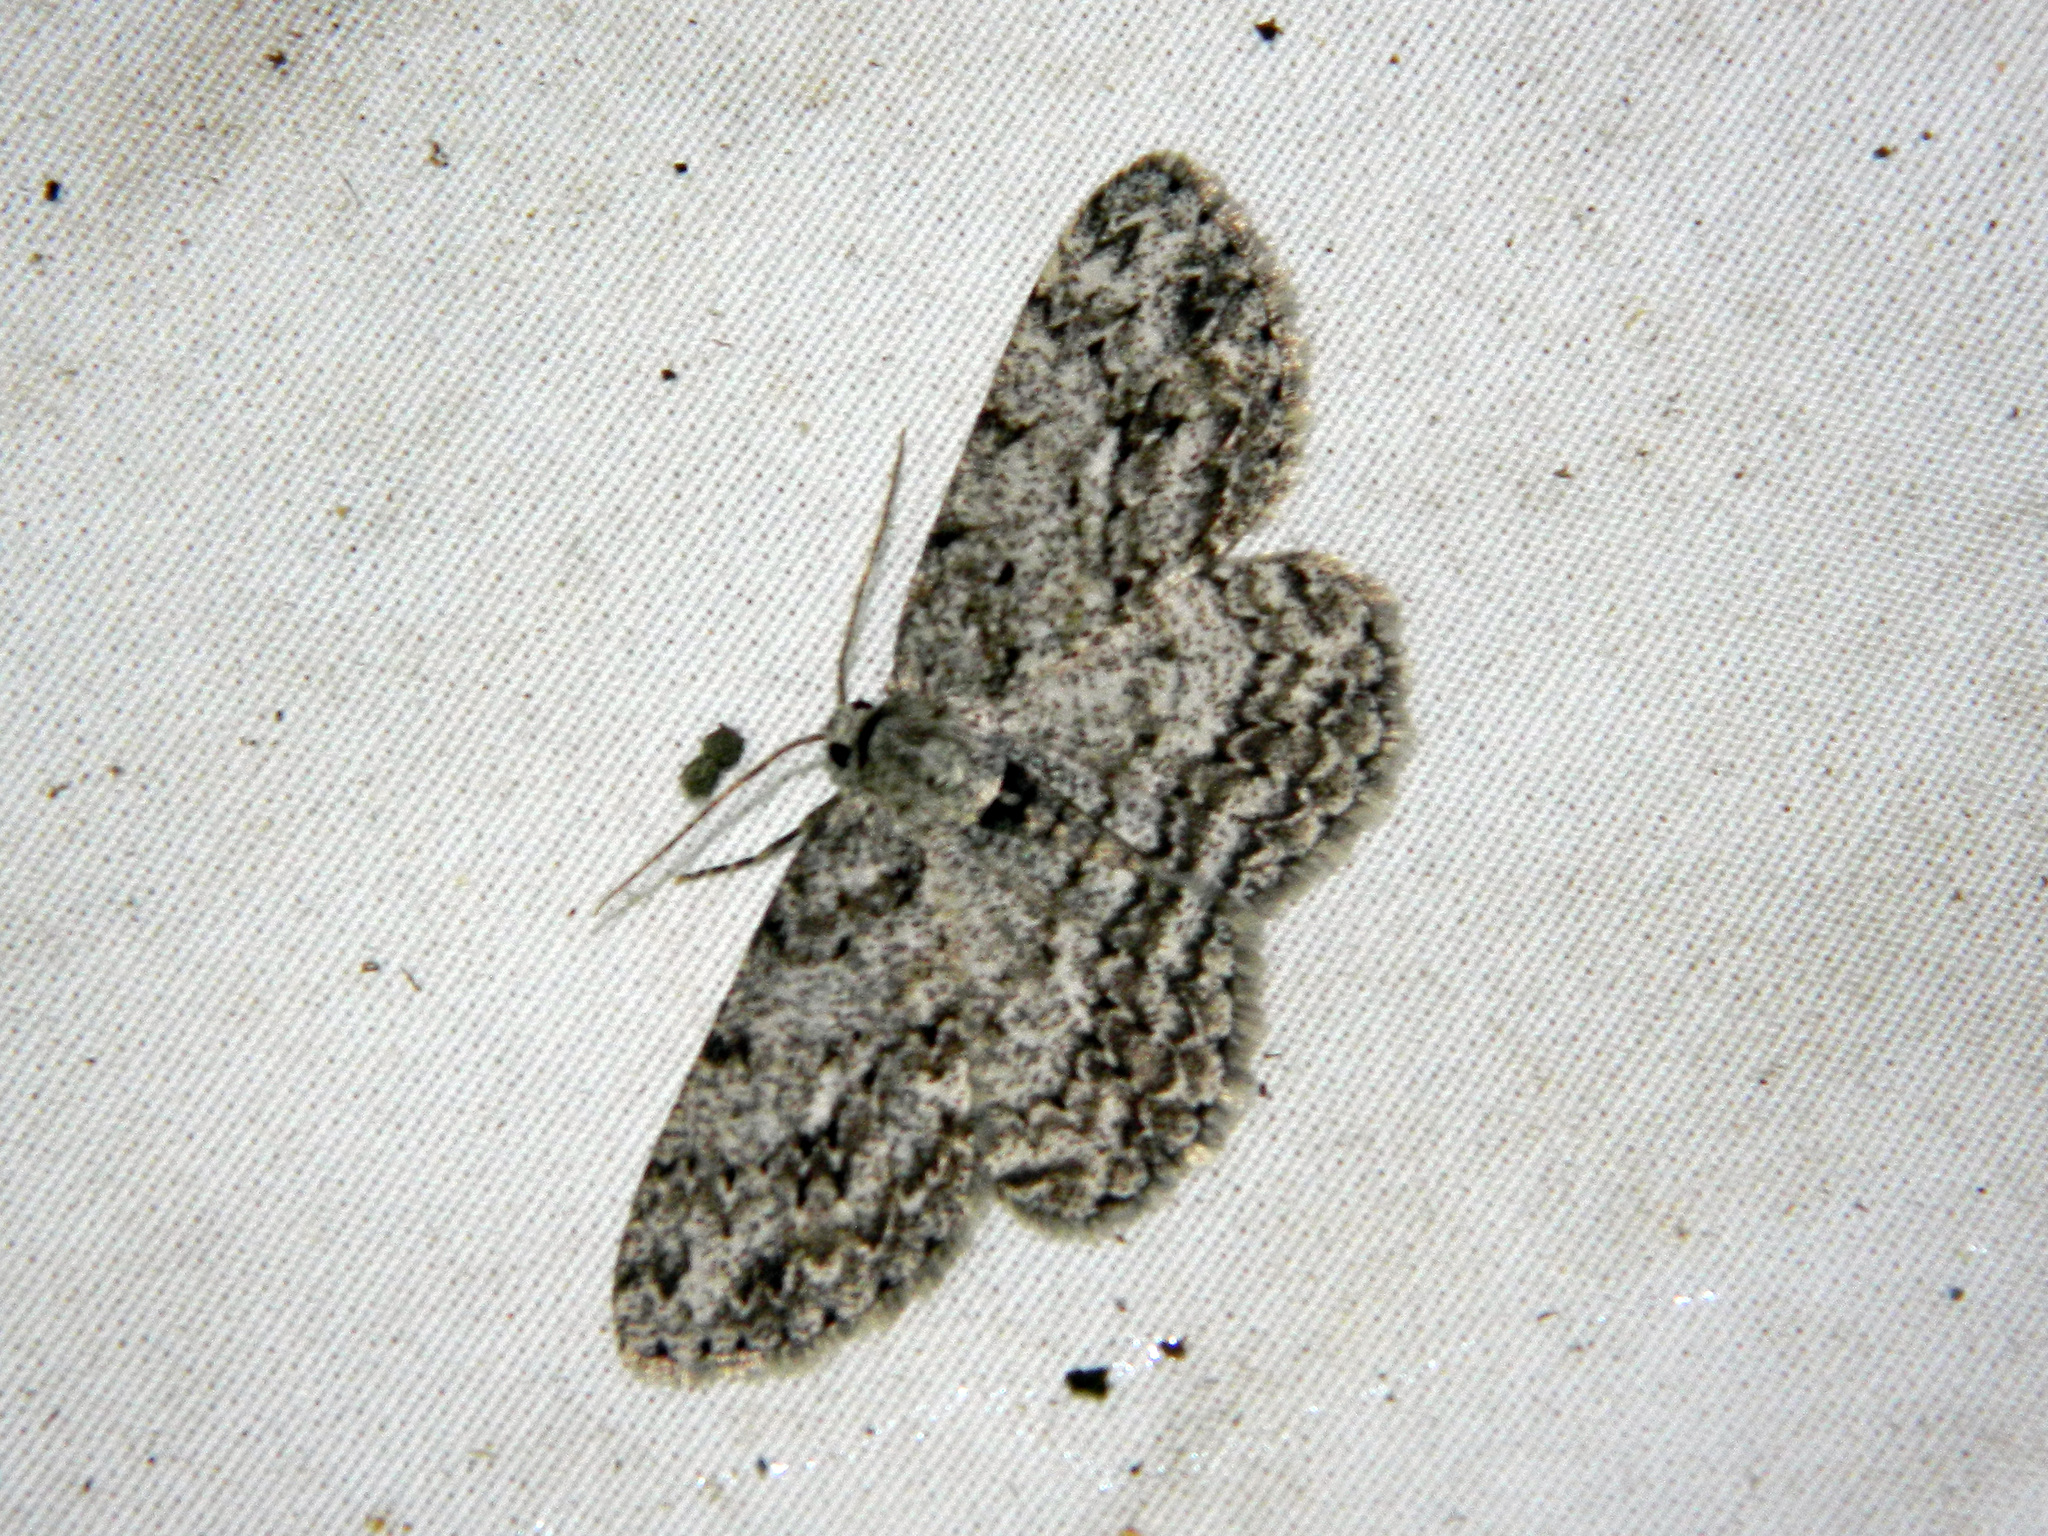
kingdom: Animalia
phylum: Arthropoda
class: Insecta
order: Lepidoptera
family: Geometridae
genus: Ectropis
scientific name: Ectropis crepuscularia
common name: Engrailed
